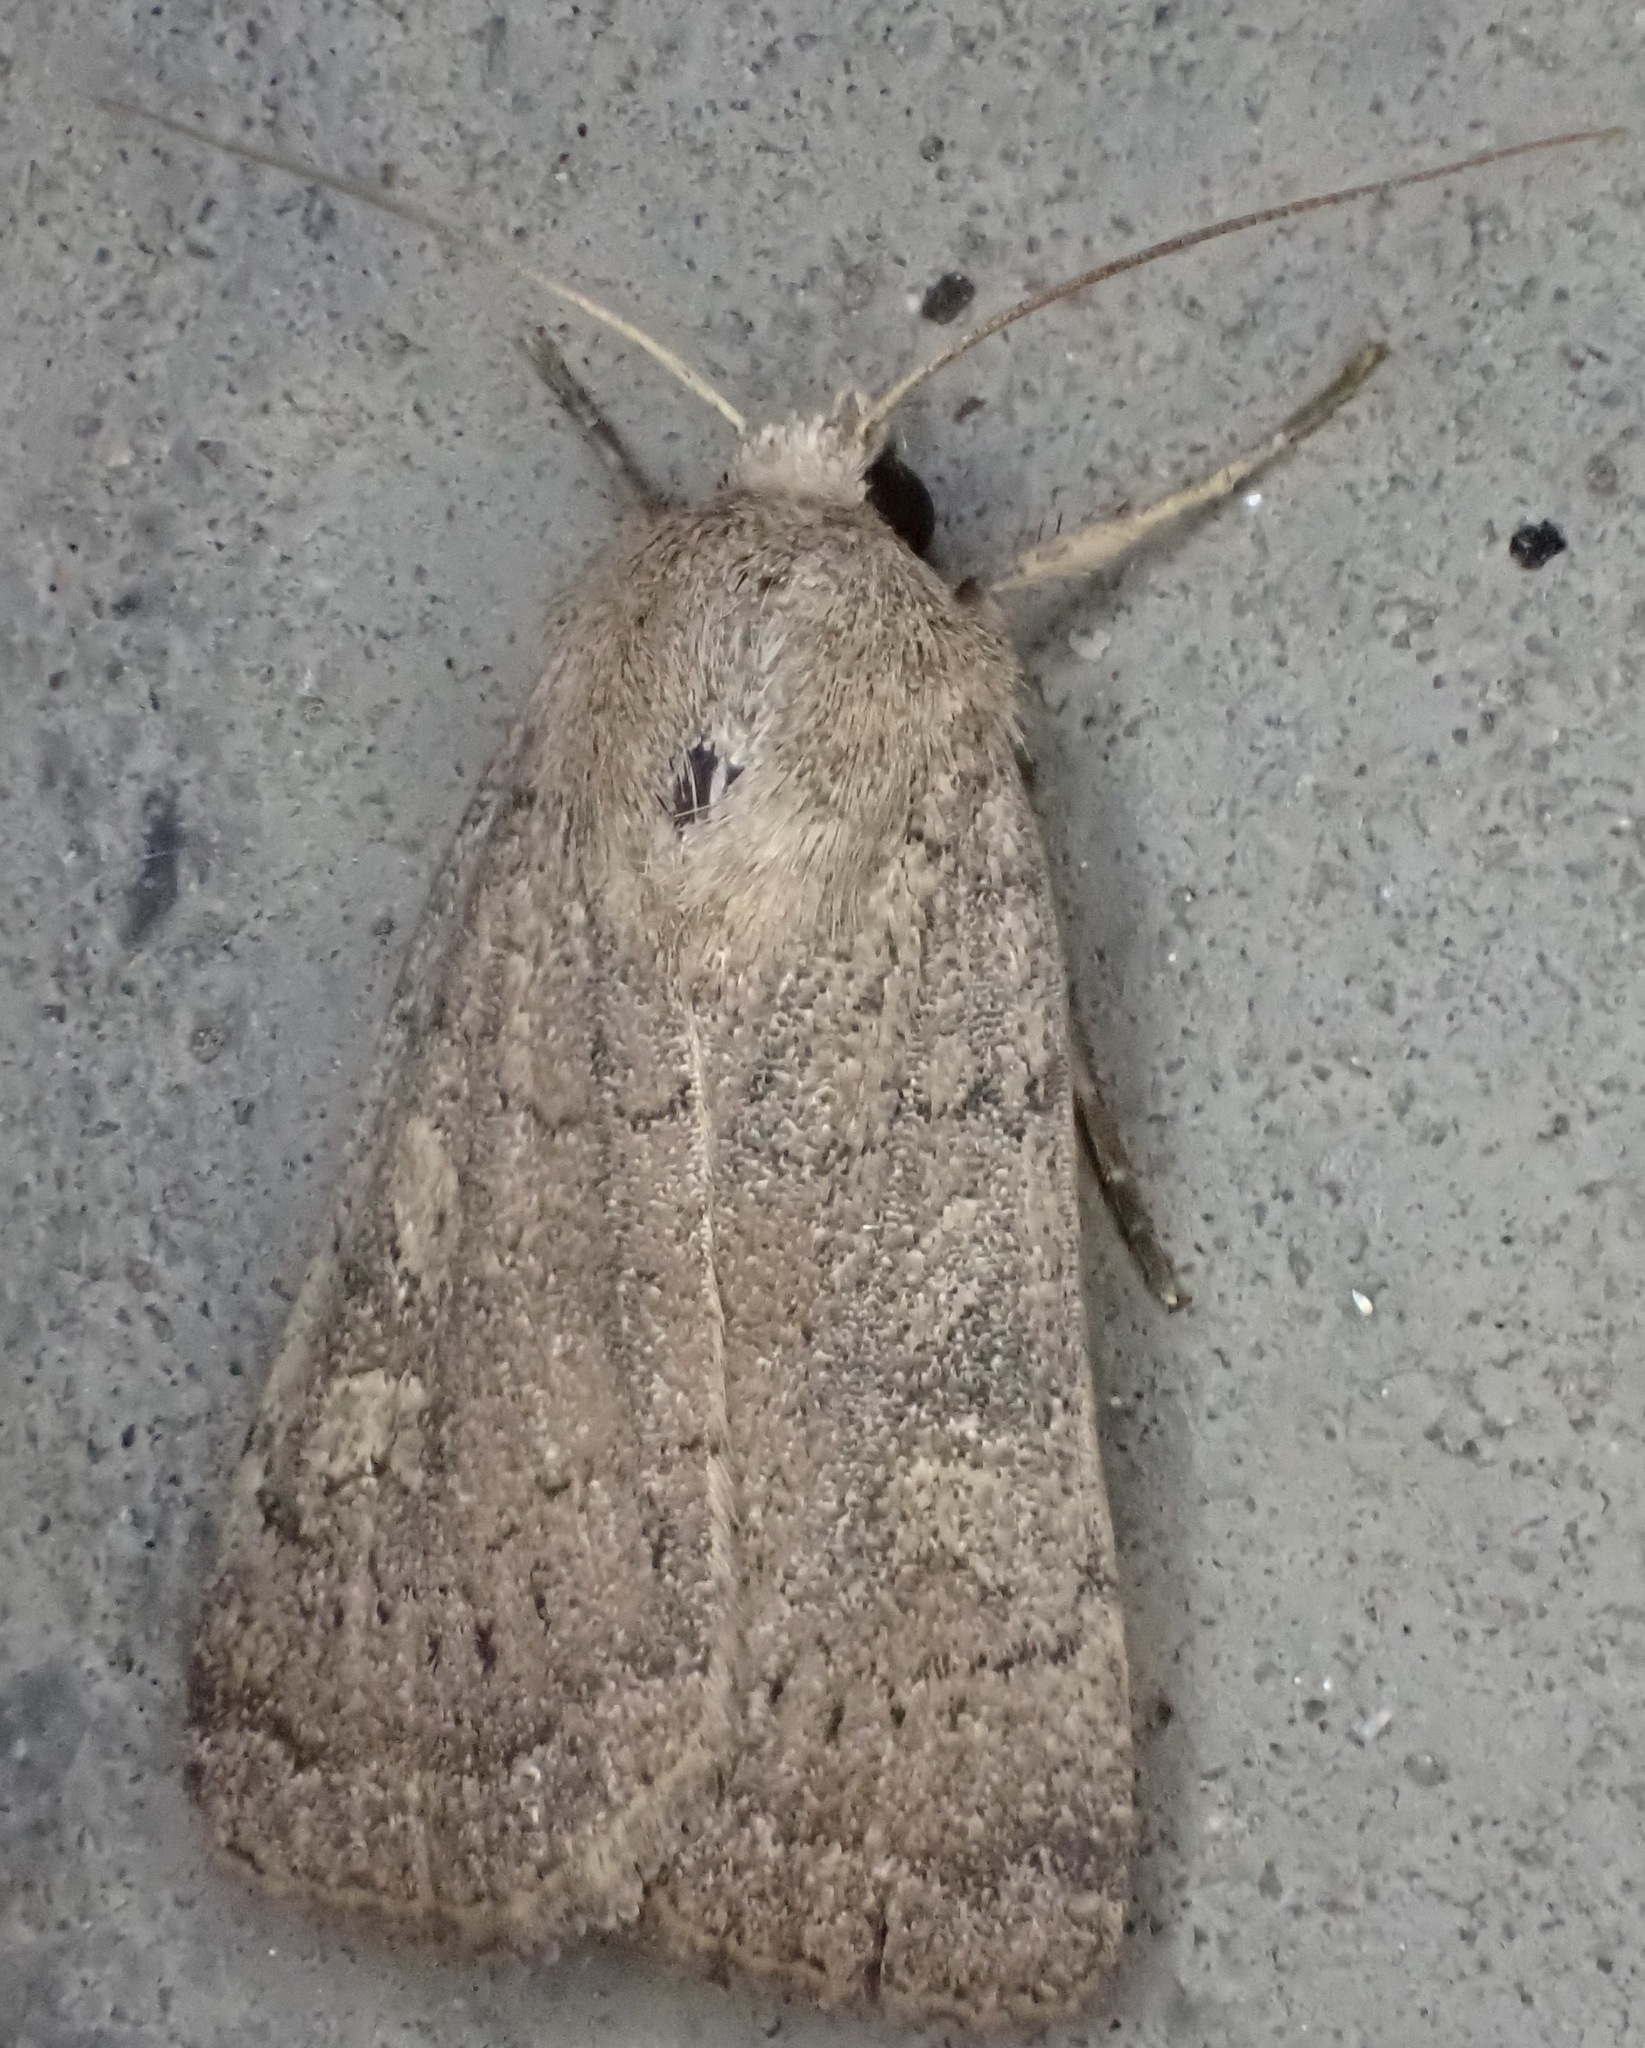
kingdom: Animalia
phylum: Arthropoda
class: Insecta
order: Lepidoptera
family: Noctuidae
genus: Xestia
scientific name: Xestia xanthographa
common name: Square-spot rustic
